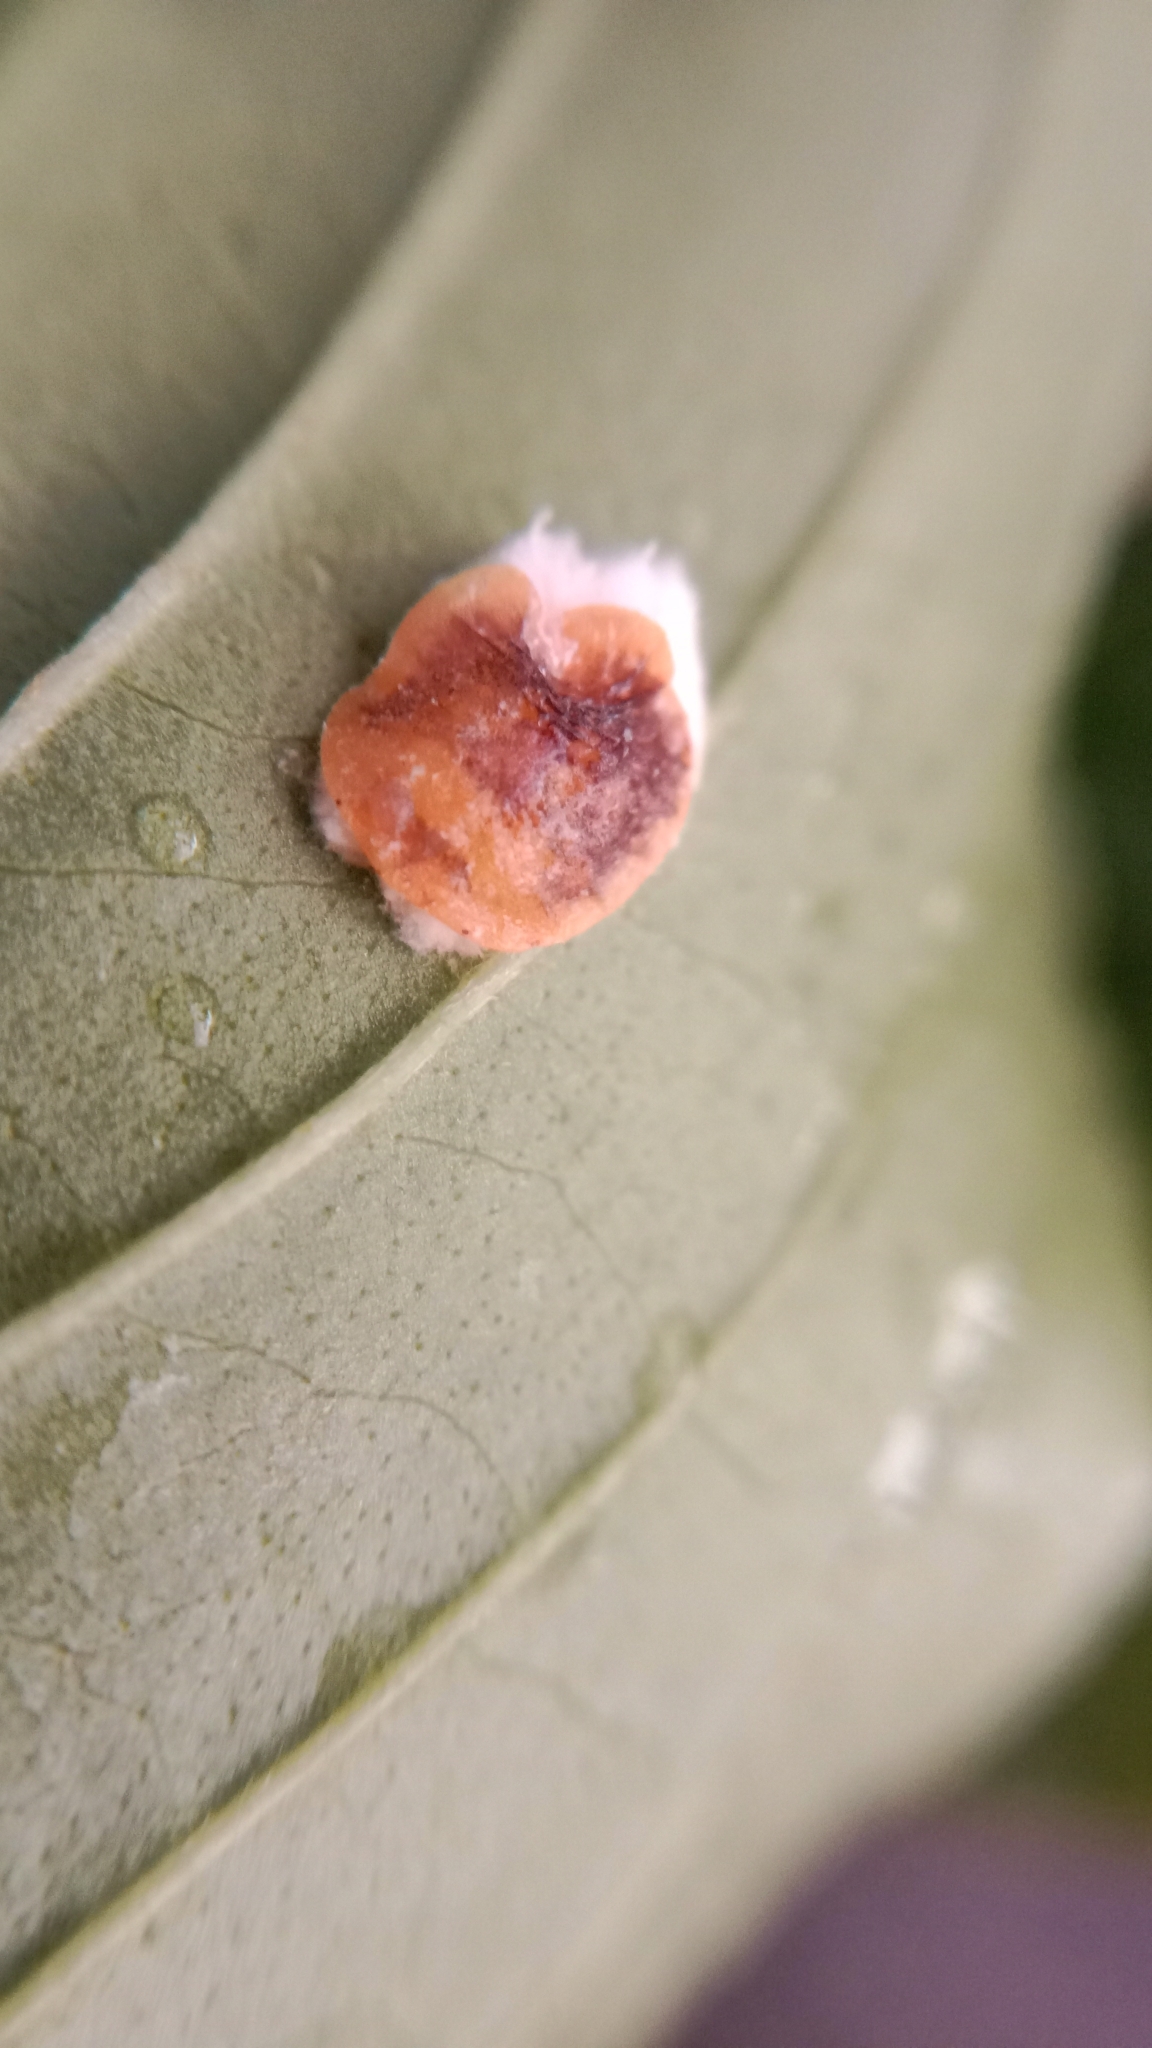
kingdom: Animalia
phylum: Arthropoda
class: Insecta
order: Hemiptera
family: Coccidae
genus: Pulvinaria
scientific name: Pulvinaria hydrangeae
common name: Cottony hydrangea scale
